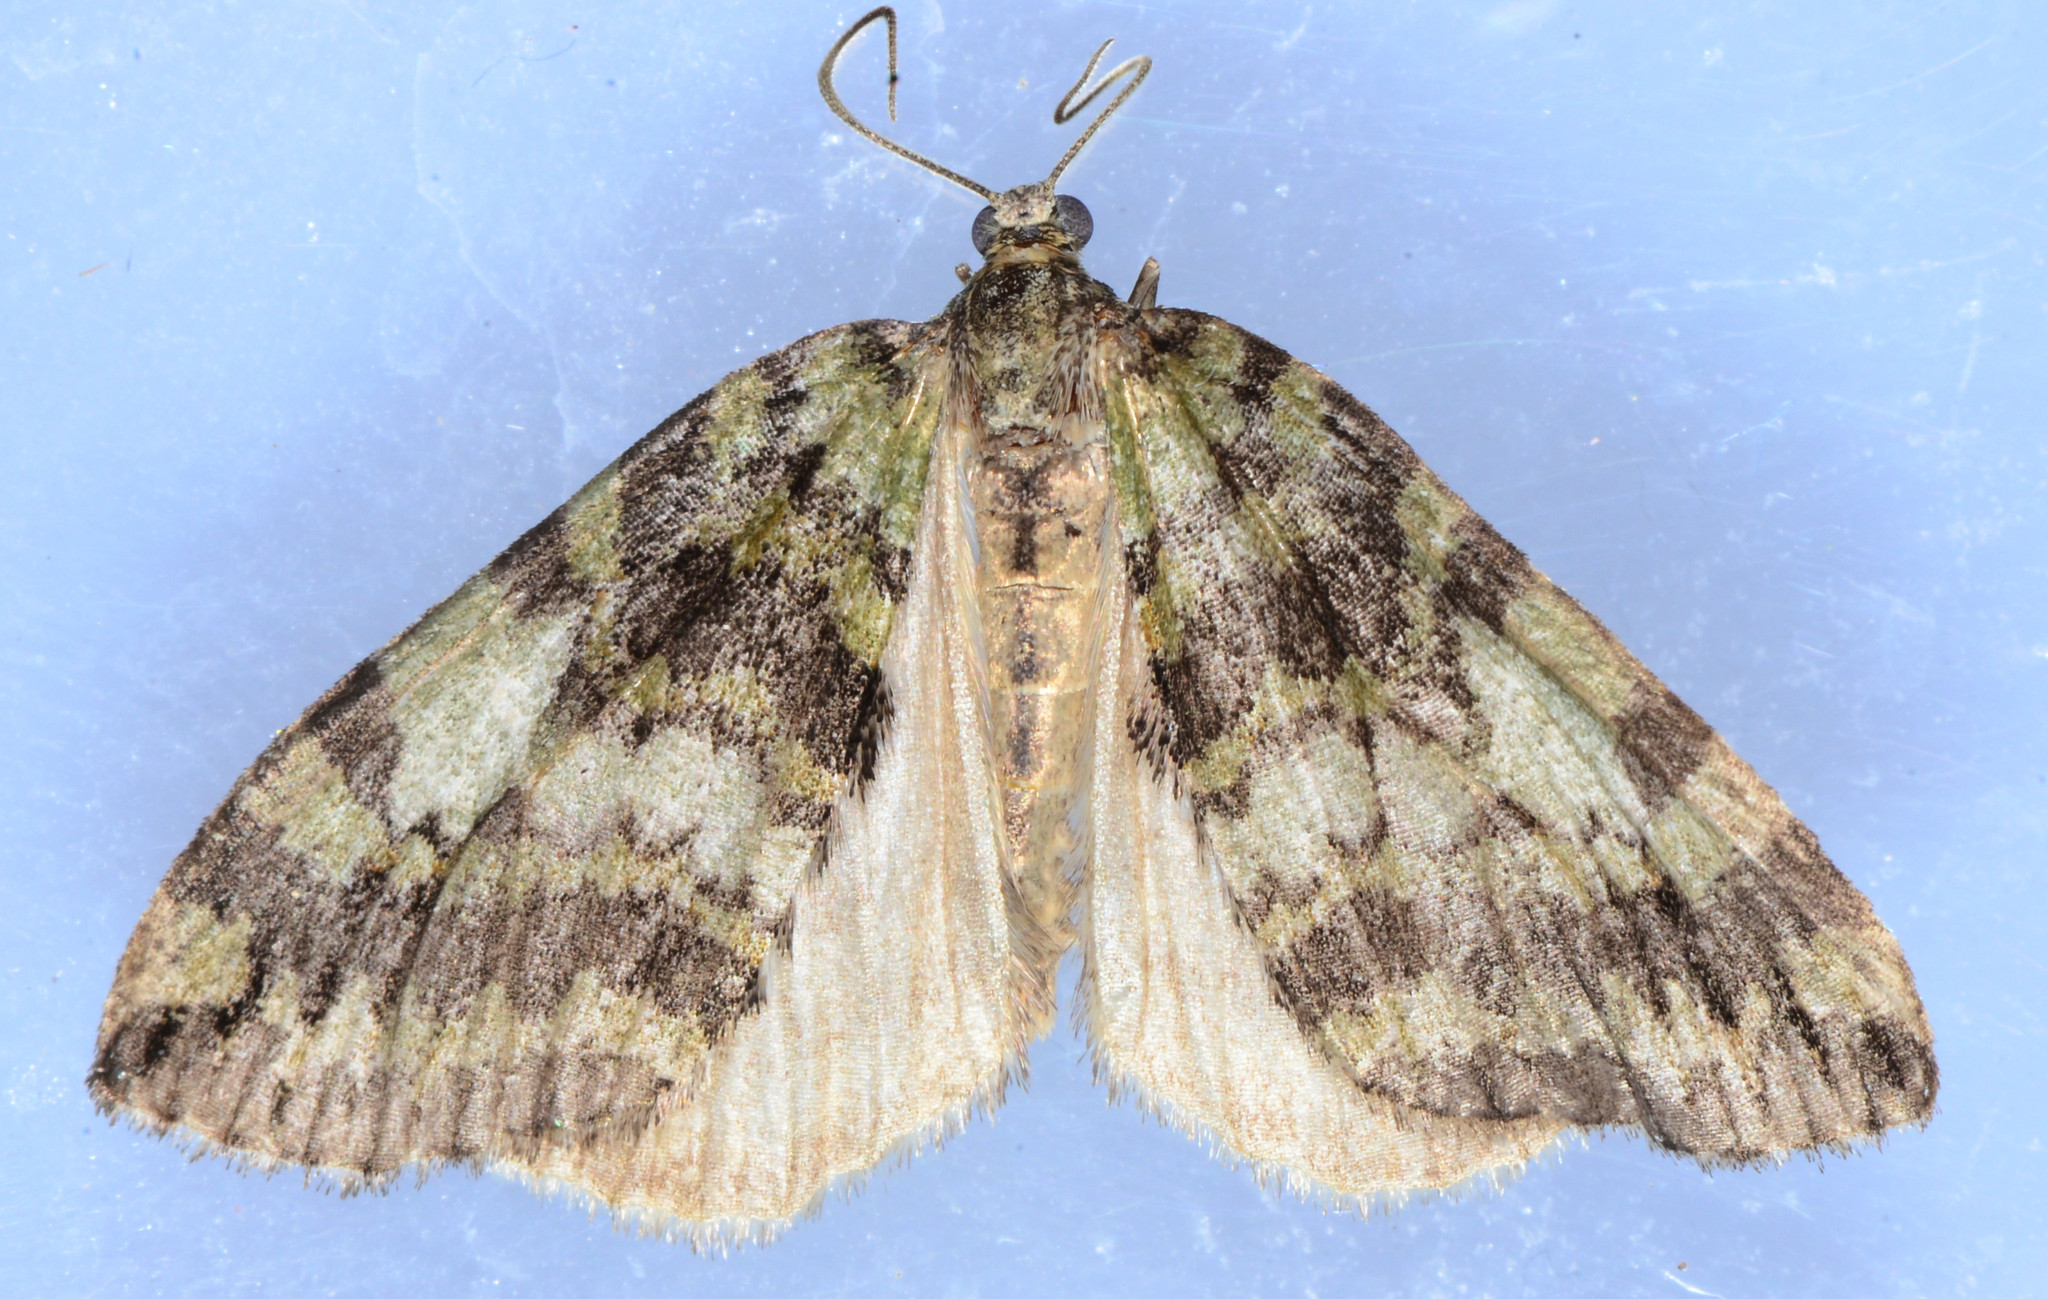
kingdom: Animalia
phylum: Arthropoda
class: Insecta
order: Lepidoptera
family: Geometridae
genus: Hydriomena
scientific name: Hydriomena renunciata
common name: Renounced hydriomena moth
